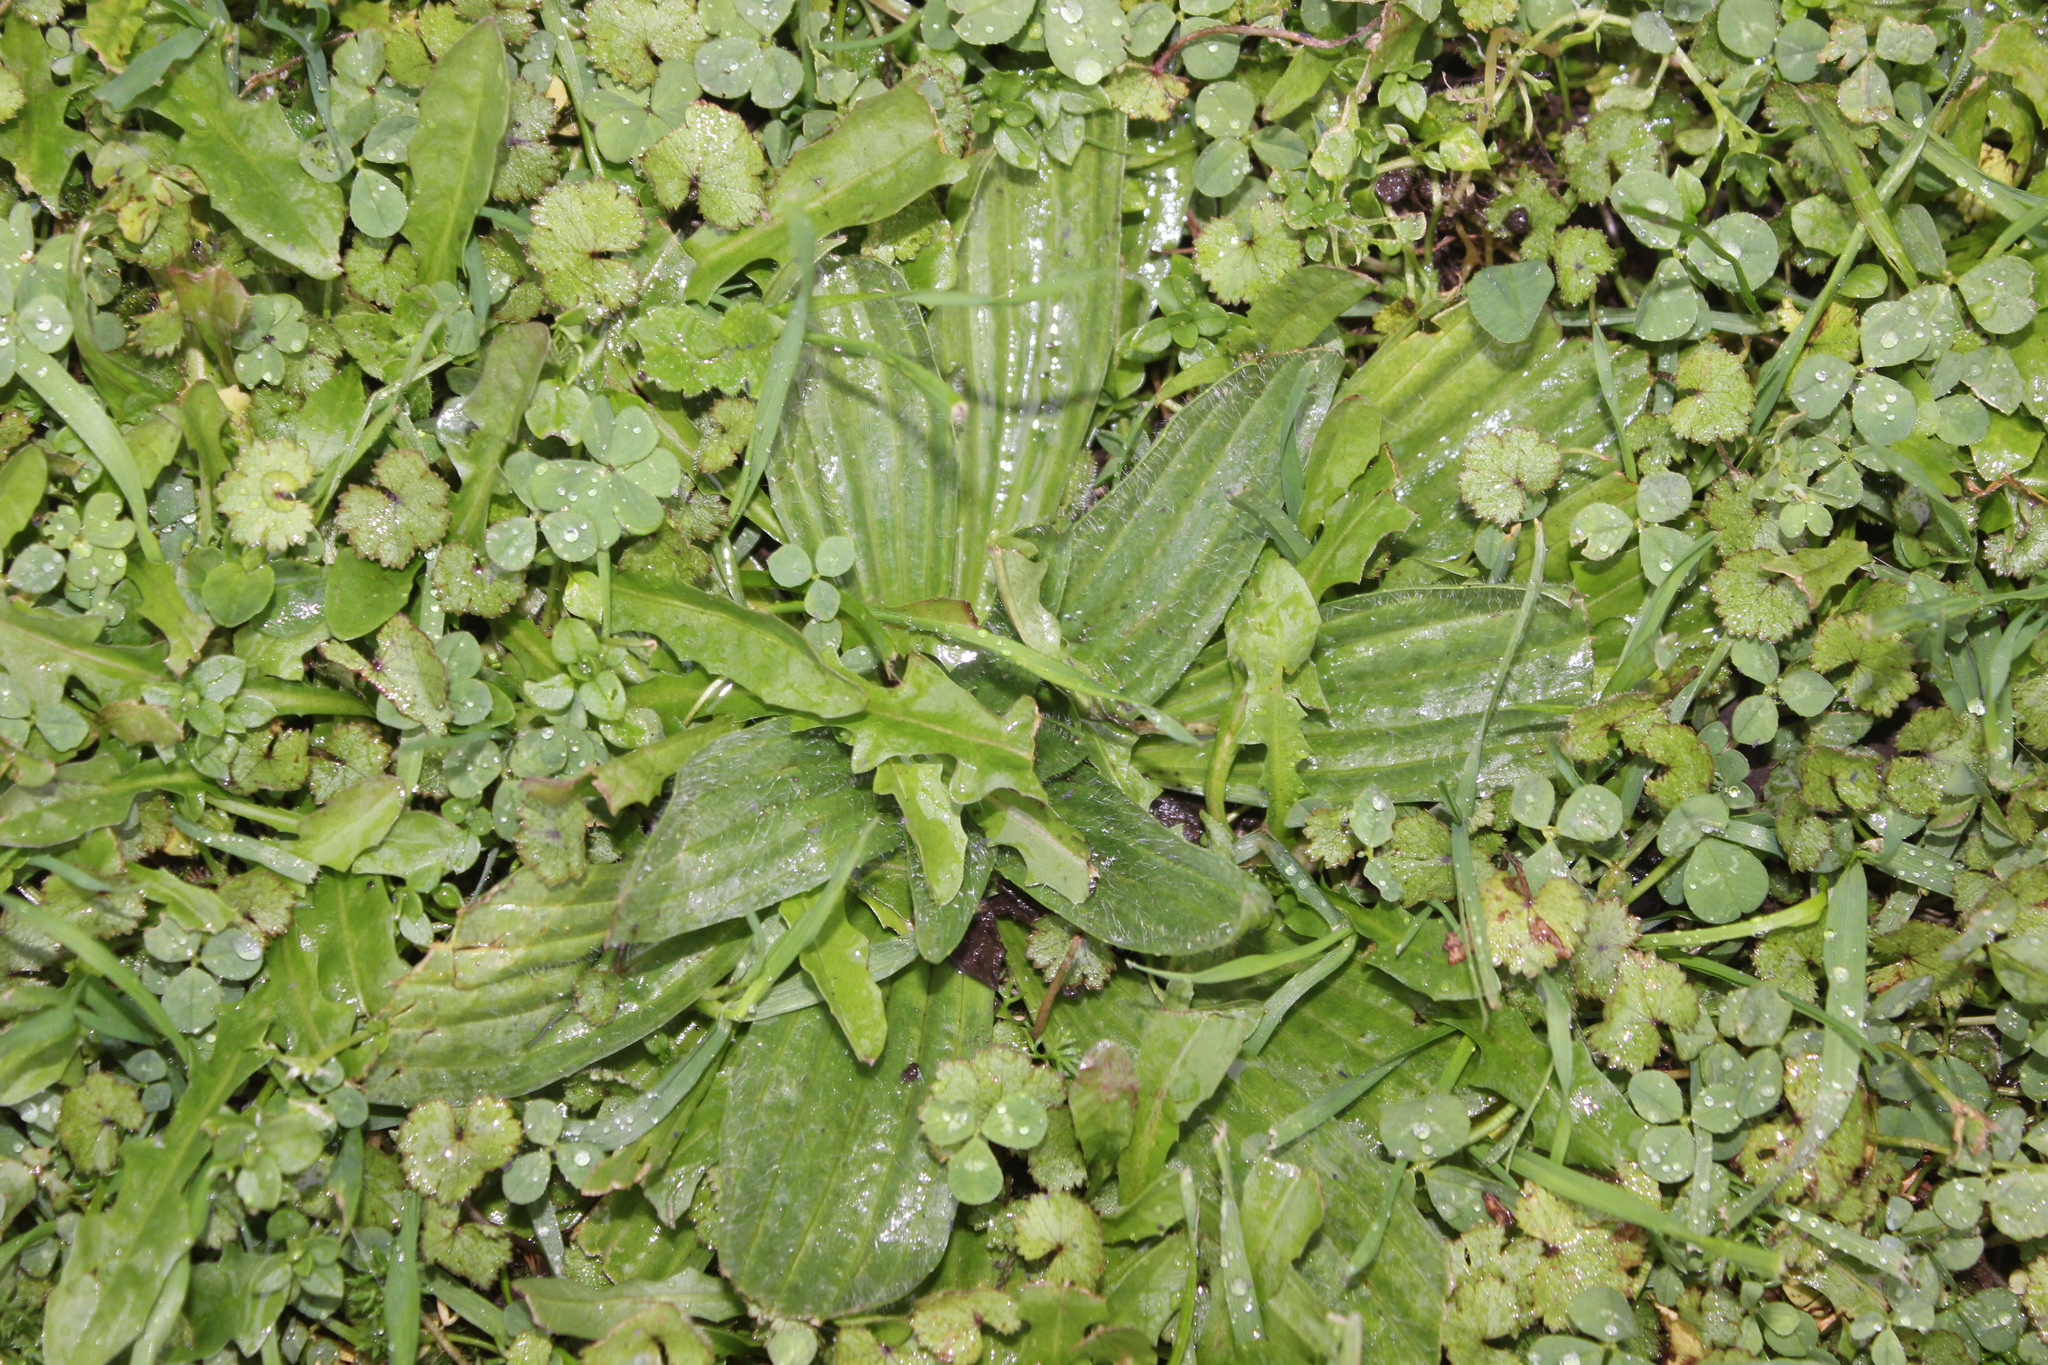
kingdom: Plantae
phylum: Tracheophyta
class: Magnoliopsida
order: Lamiales
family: Plantaginaceae
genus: Plantago
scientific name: Plantago lanceolata
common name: Ribwort plantain
